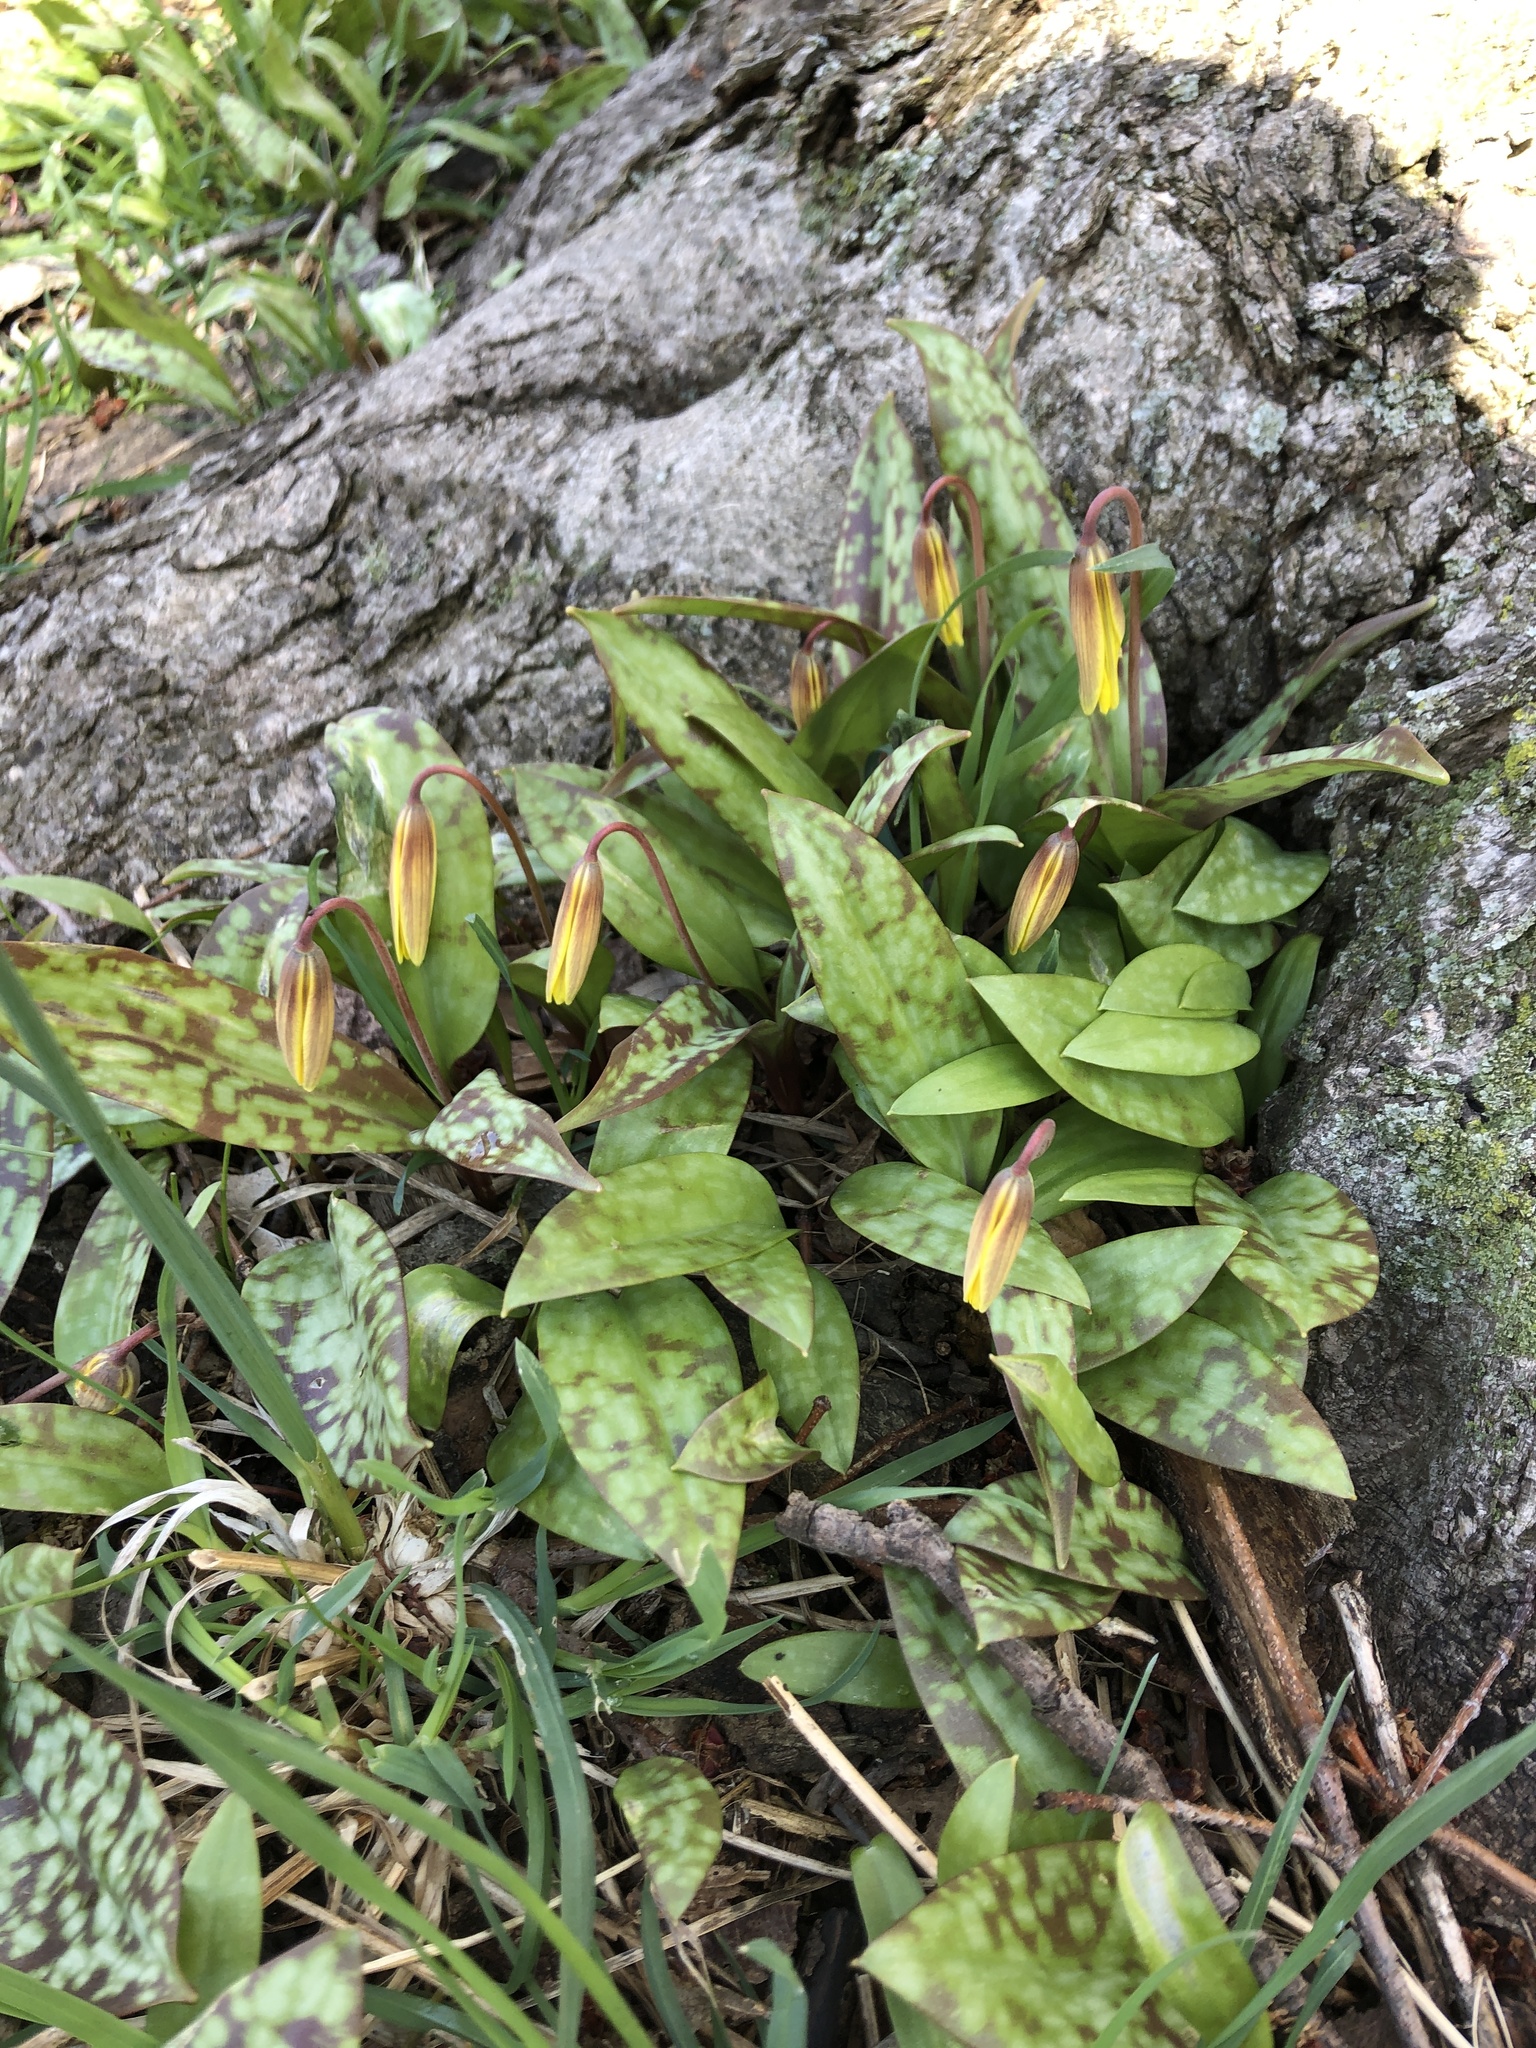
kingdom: Plantae
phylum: Tracheophyta
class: Liliopsida
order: Liliales
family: Liliaceae
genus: Erythronium
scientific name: Erythronium americanum
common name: Yellow adder's-tongue
